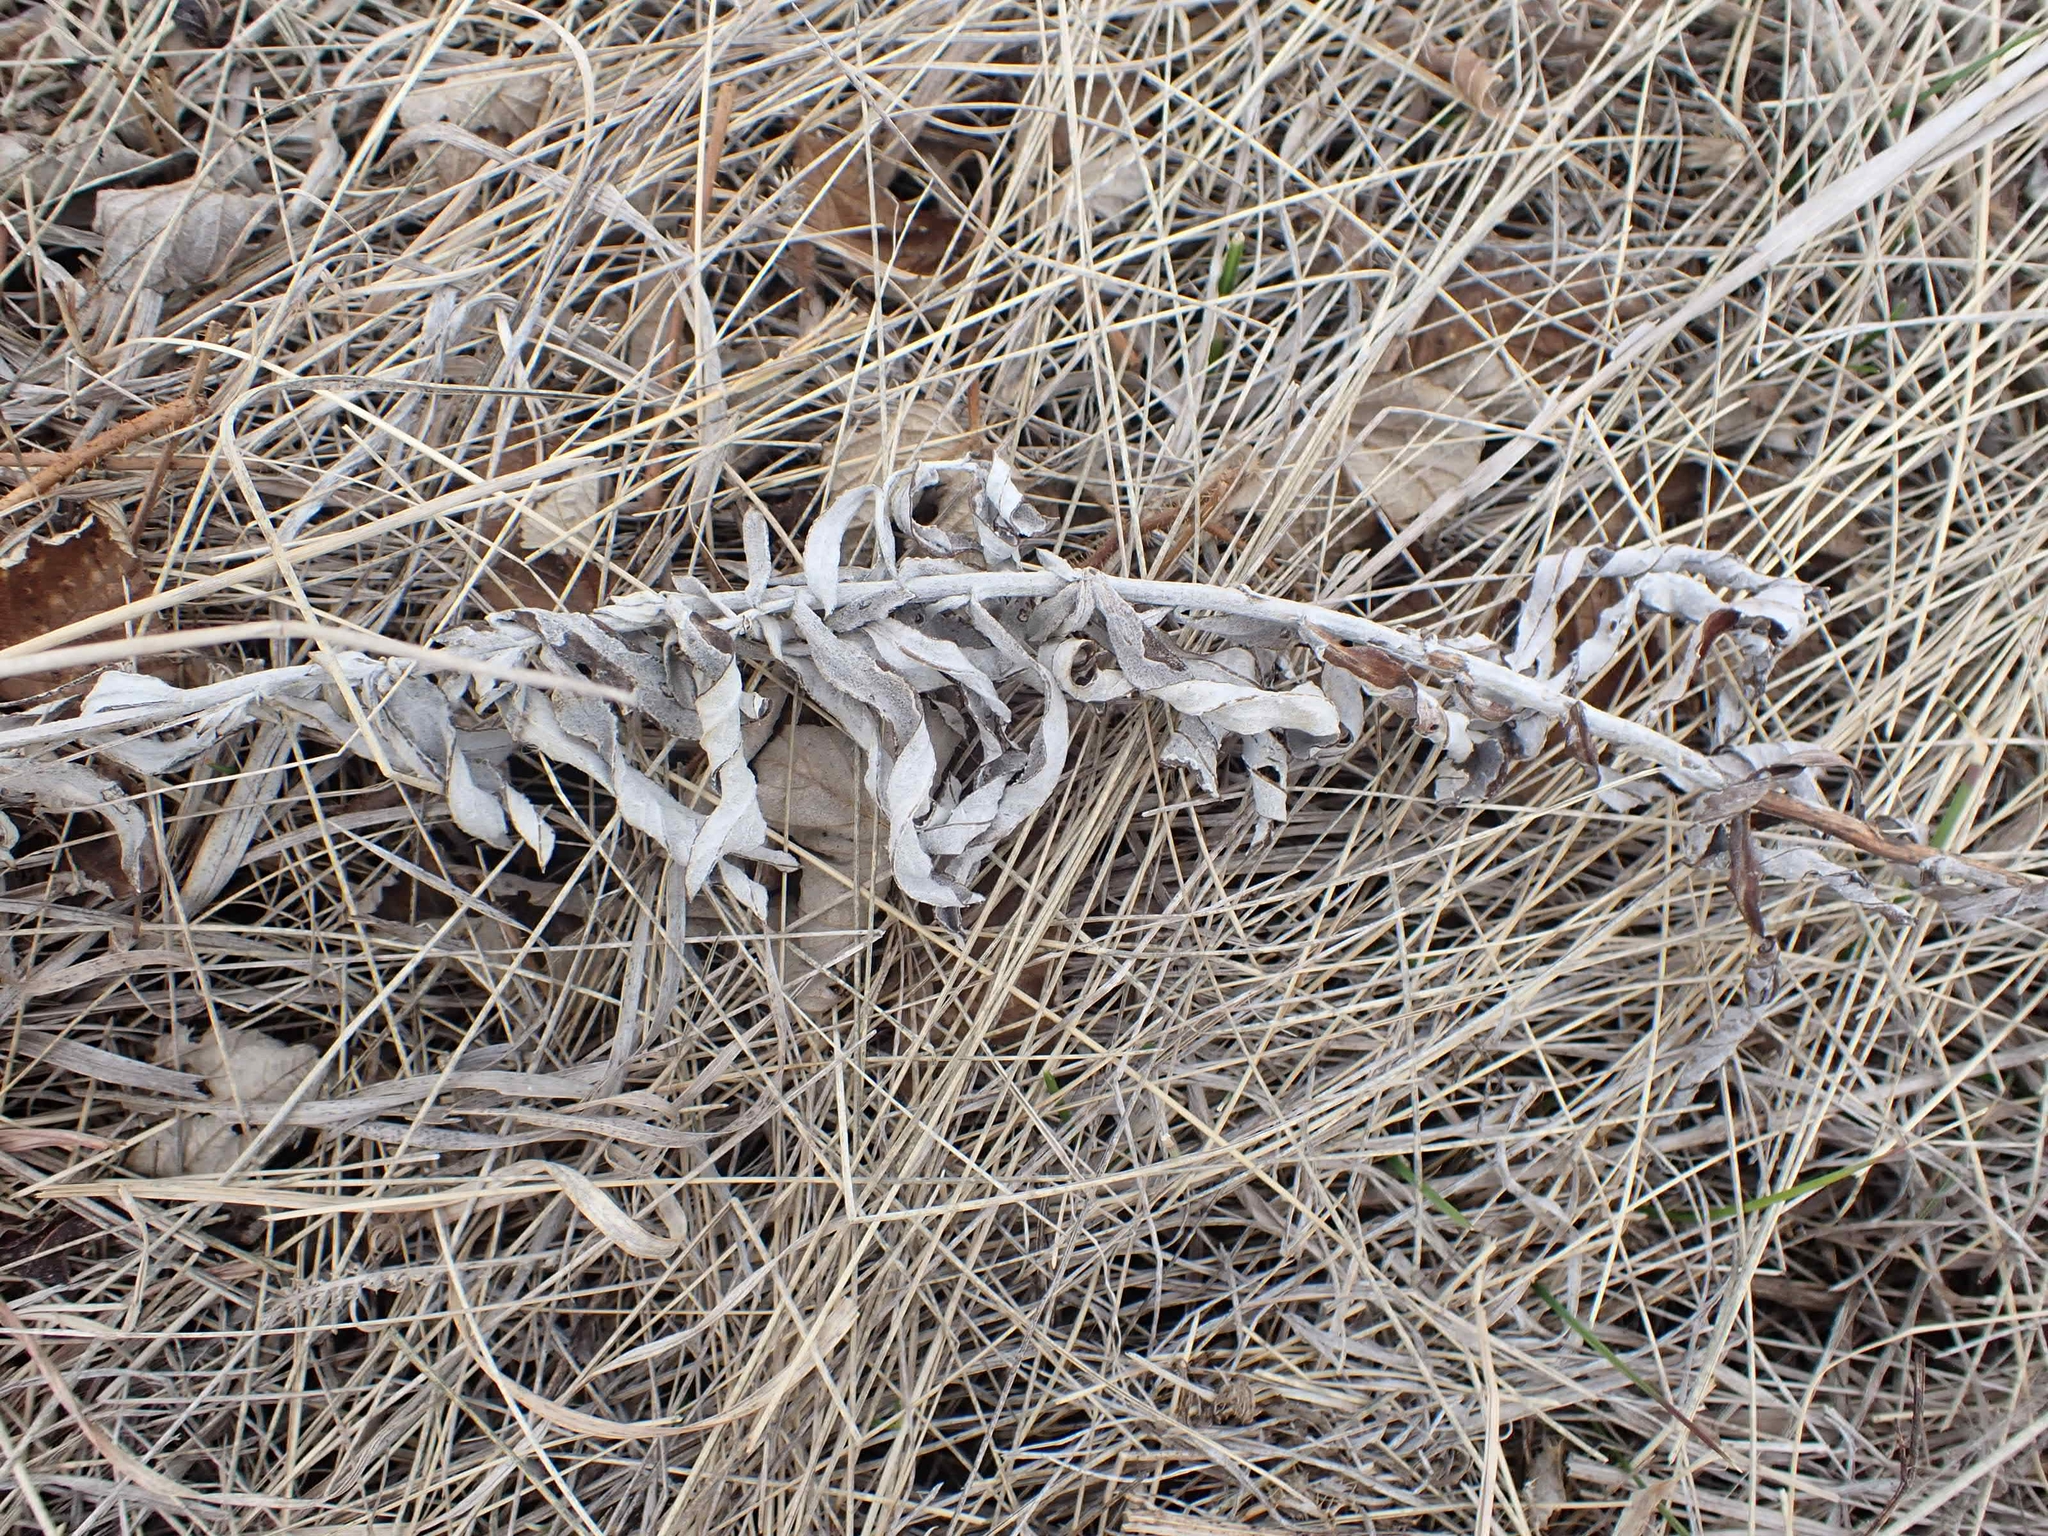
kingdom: Plantae
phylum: Tracheophyta
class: Magnoliopsida
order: Asterales
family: Asteraceae
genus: Artemisia
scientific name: Artemisia ludoviciana
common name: Western mugwort
